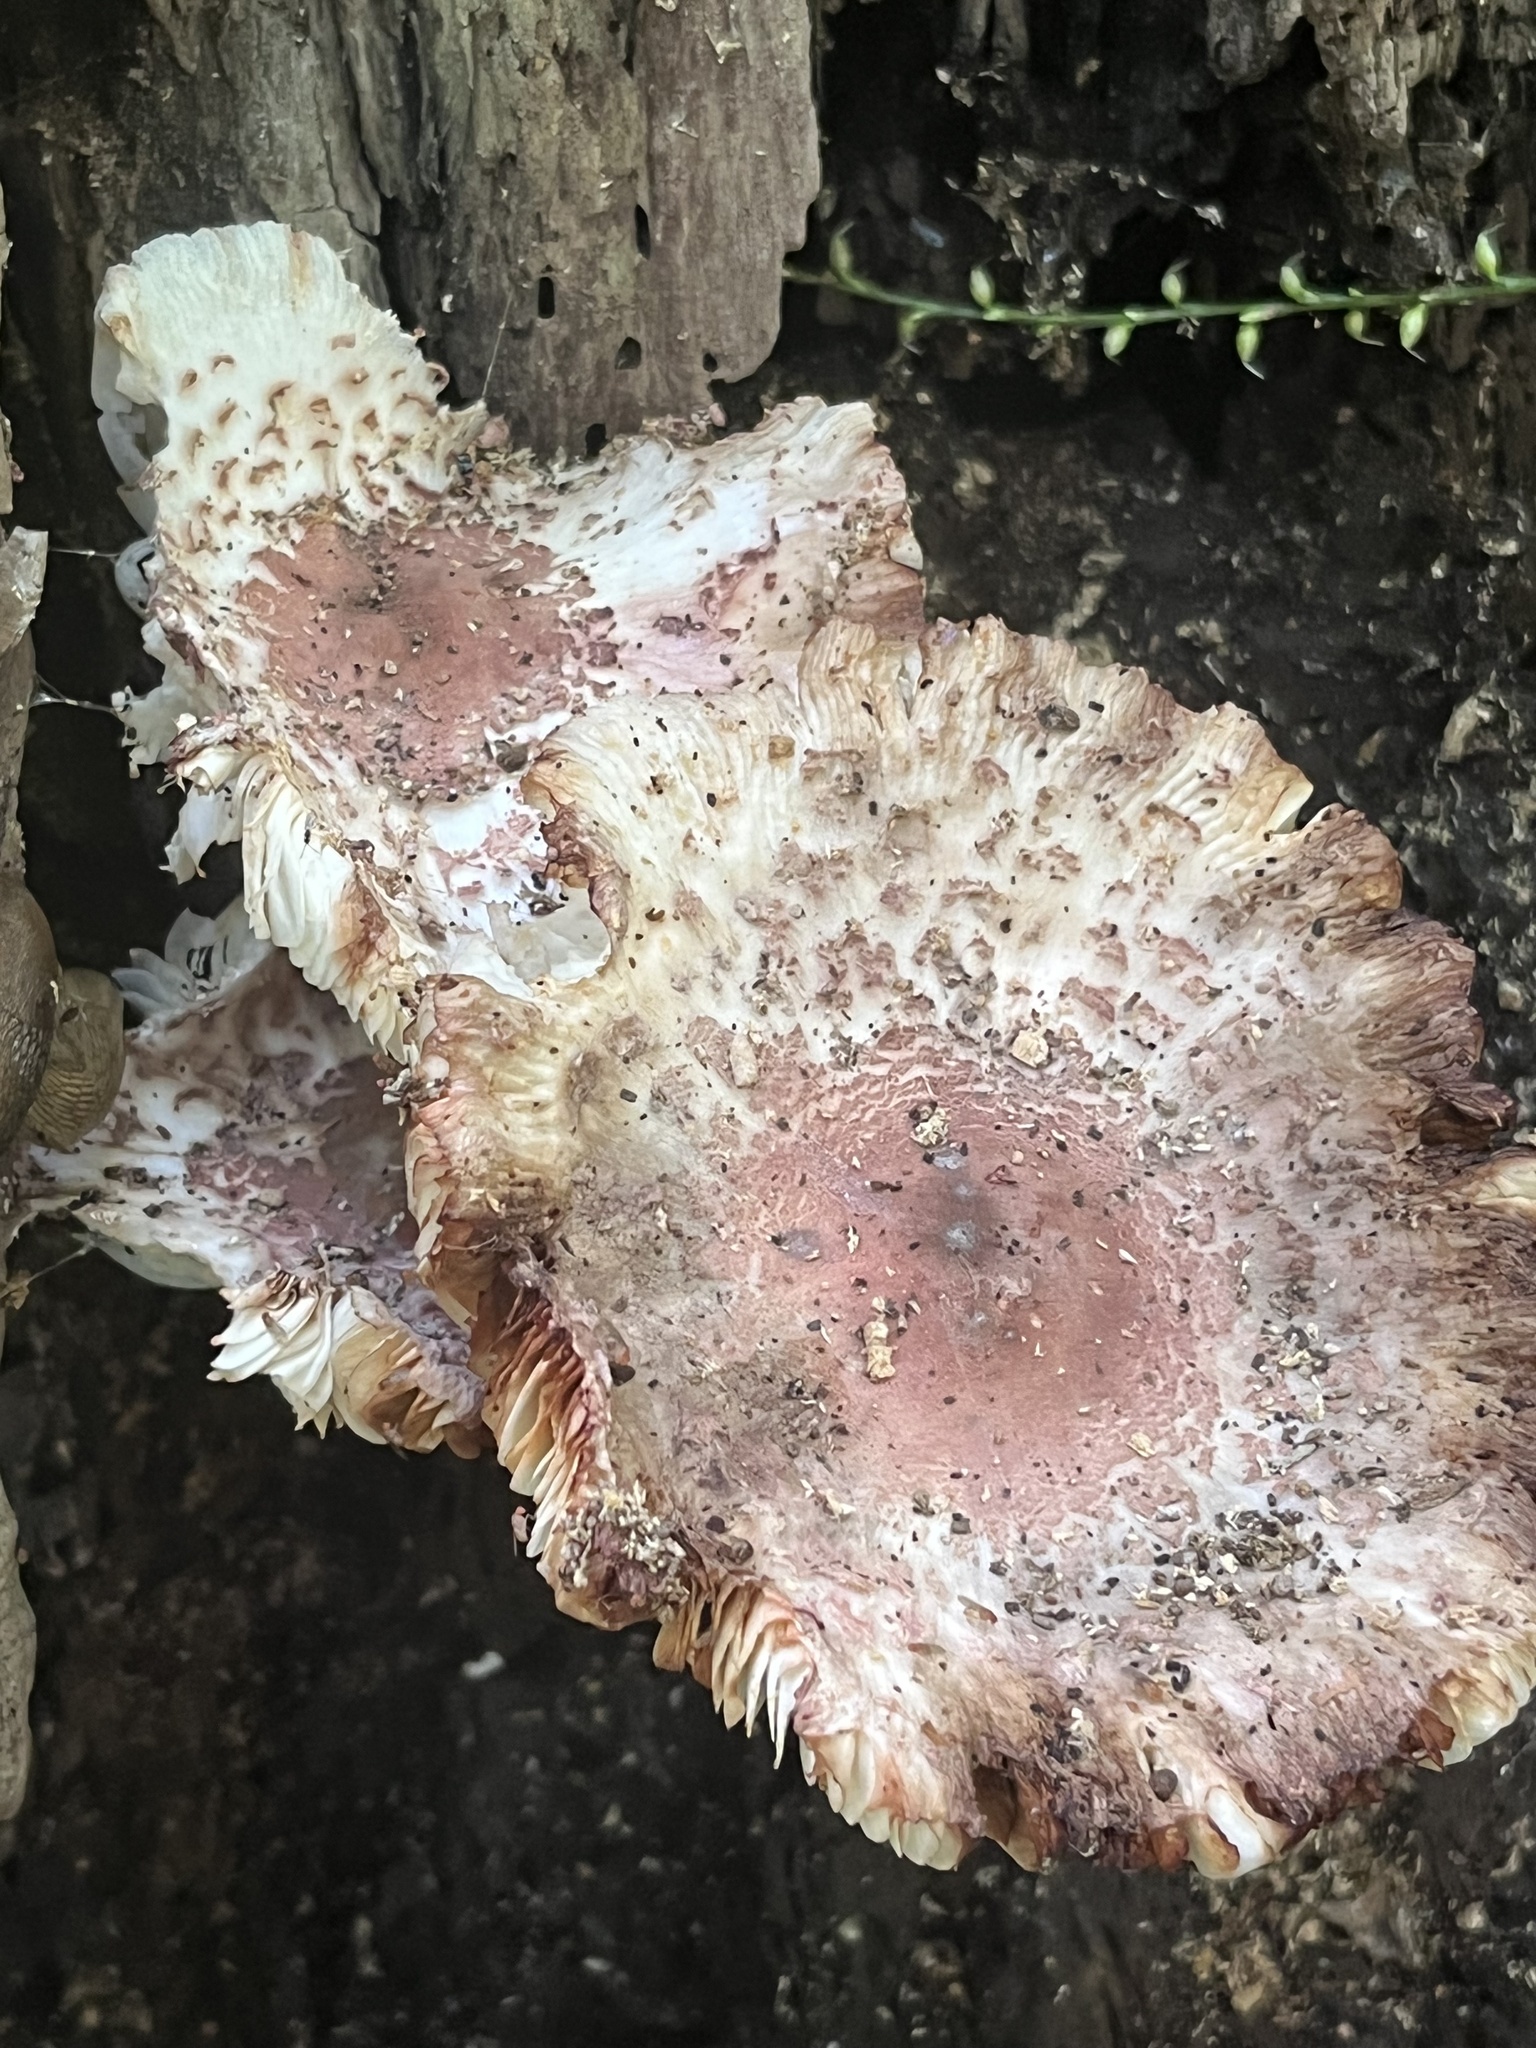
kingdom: Fungi
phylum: Basidiomycota
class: Agaricomycetes
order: Agaricales
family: Agaricaceae
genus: Leucoagaricus
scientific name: Leucoagaricus americanus
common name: Reddening lepiota
